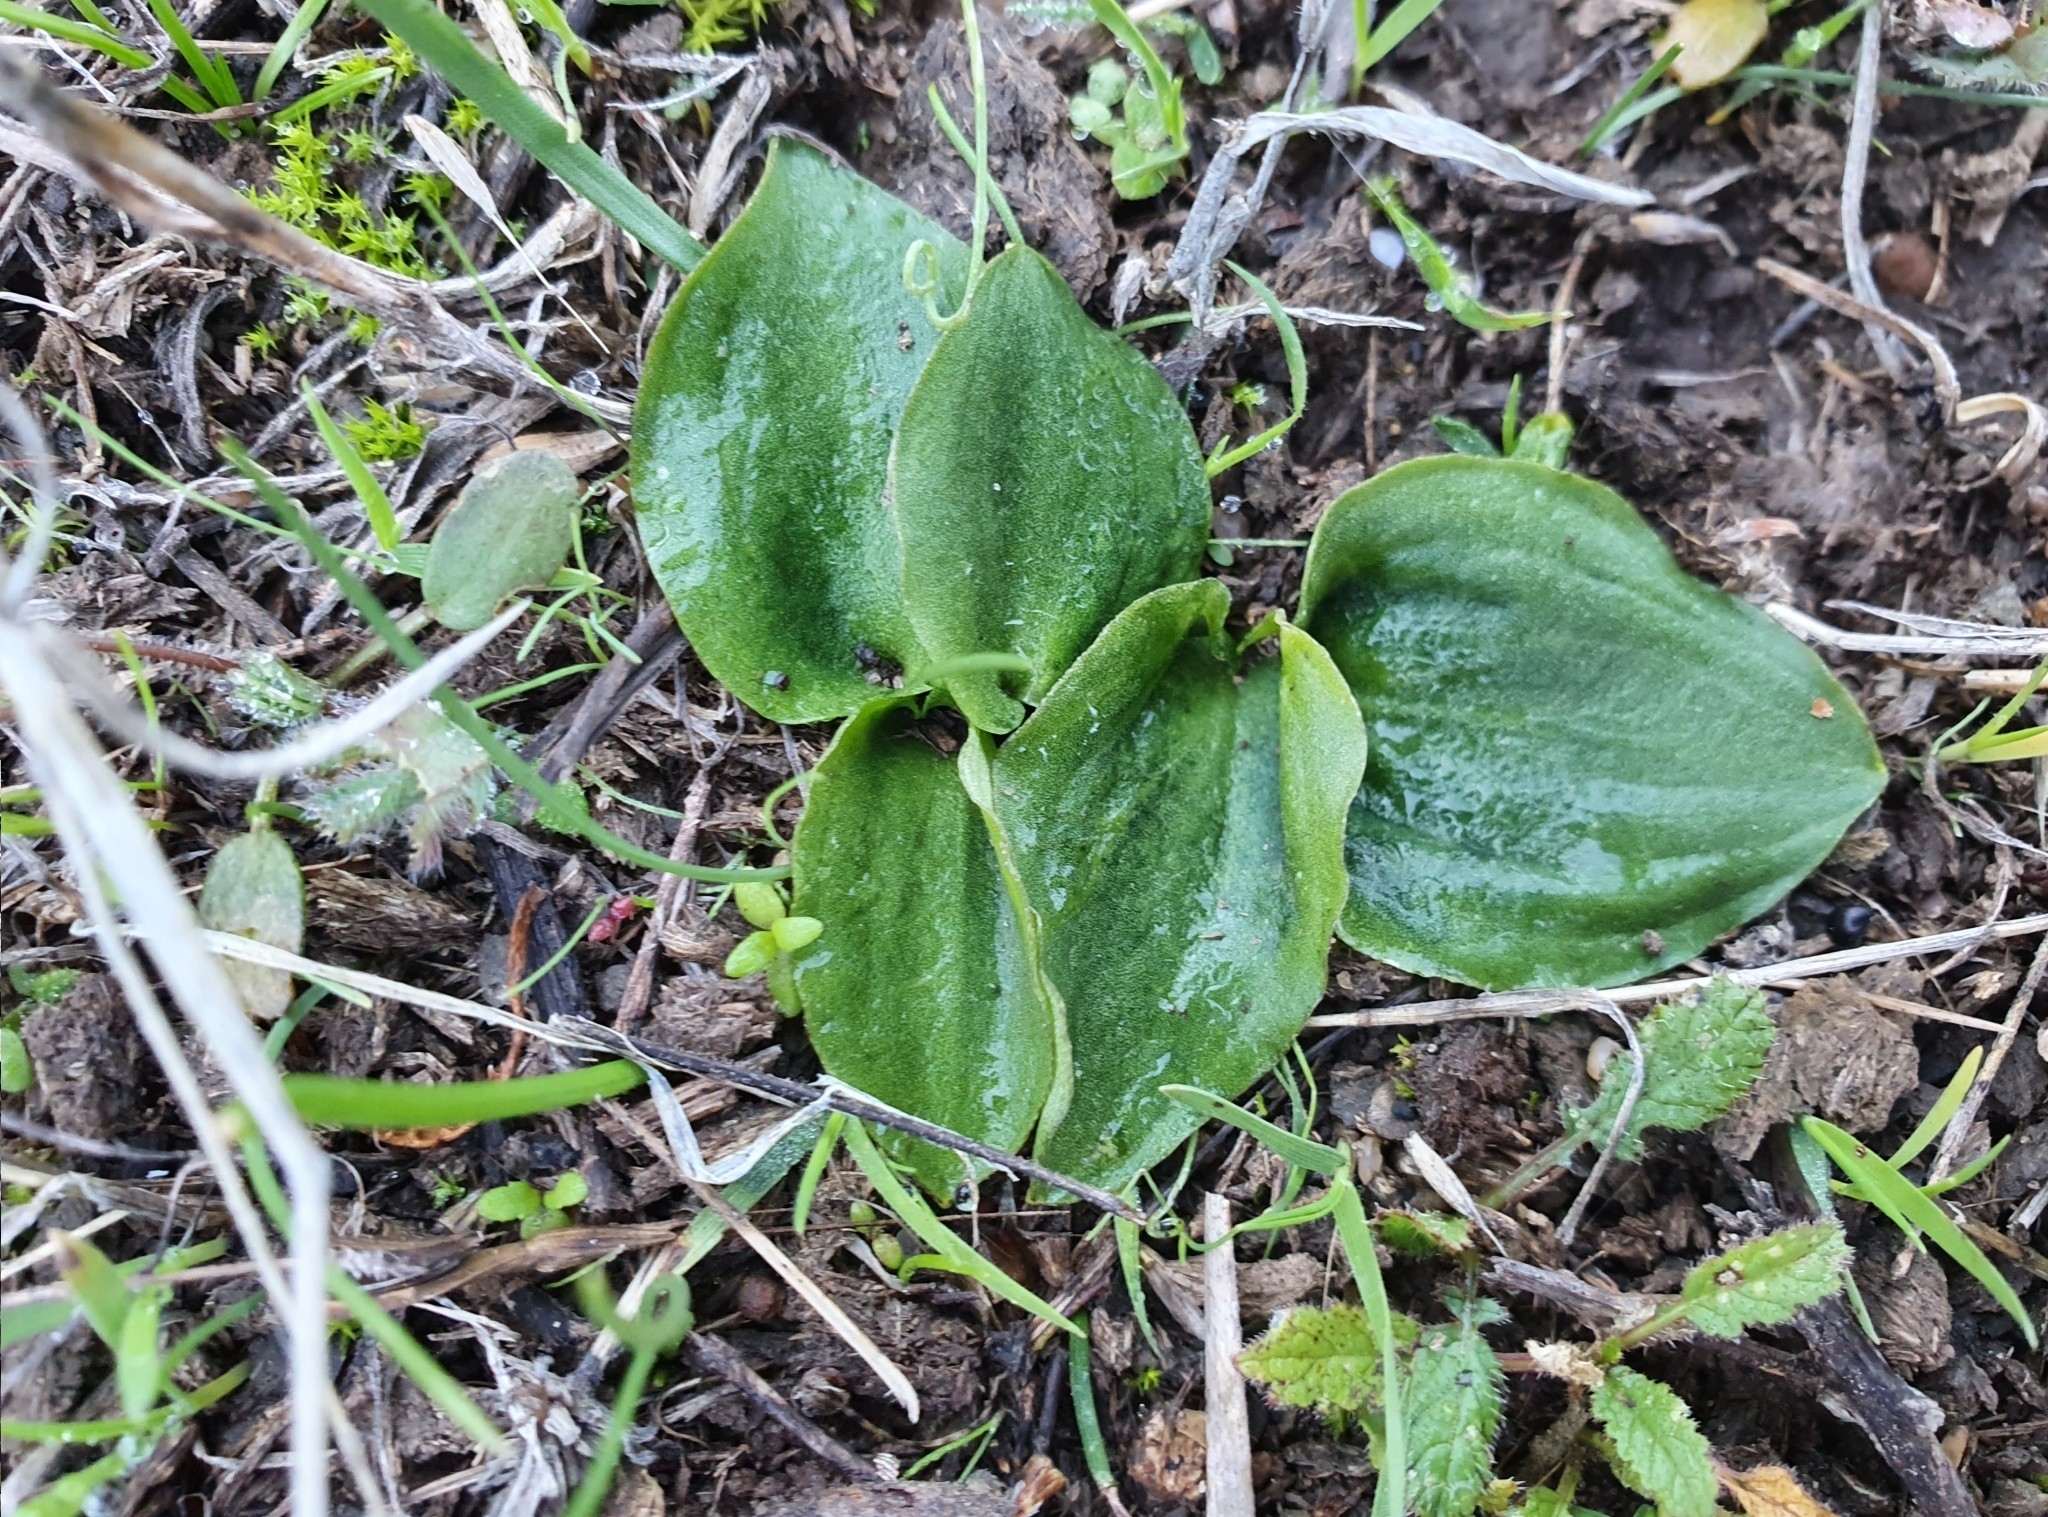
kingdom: Plantae
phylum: Tracheophyta
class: Liliopsida
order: Alismatales
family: Araceae
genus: Ambrosina
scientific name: Ambrosina bassii
